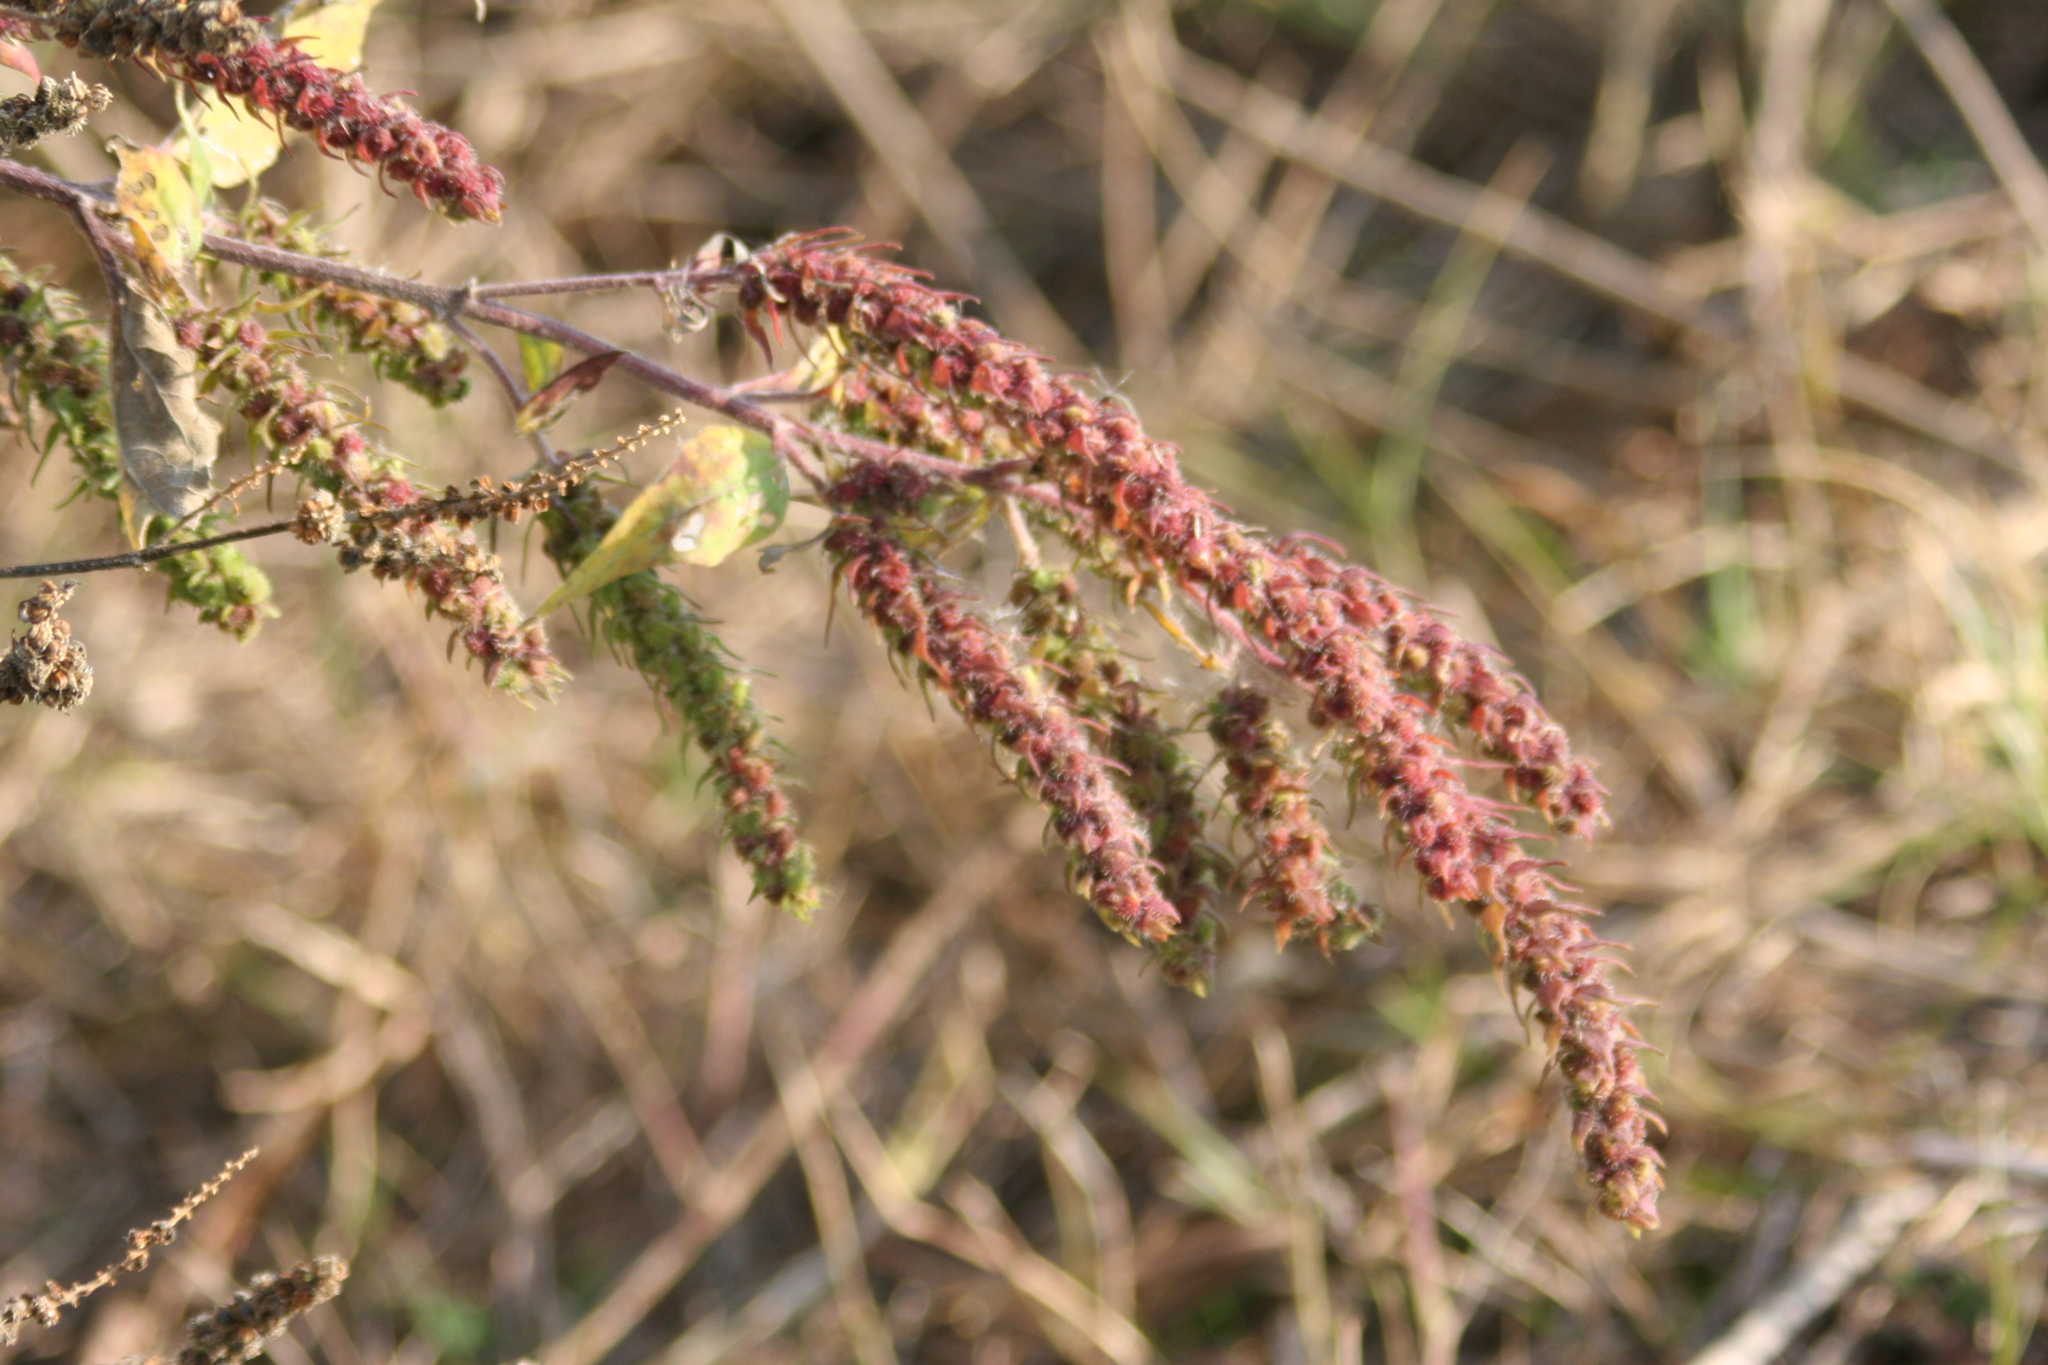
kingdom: Plantae
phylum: Tracheophyta
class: Magnoliopsida
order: Asterales
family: Asteraceae
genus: Iva
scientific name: Iva annua
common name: Marsh-elder
